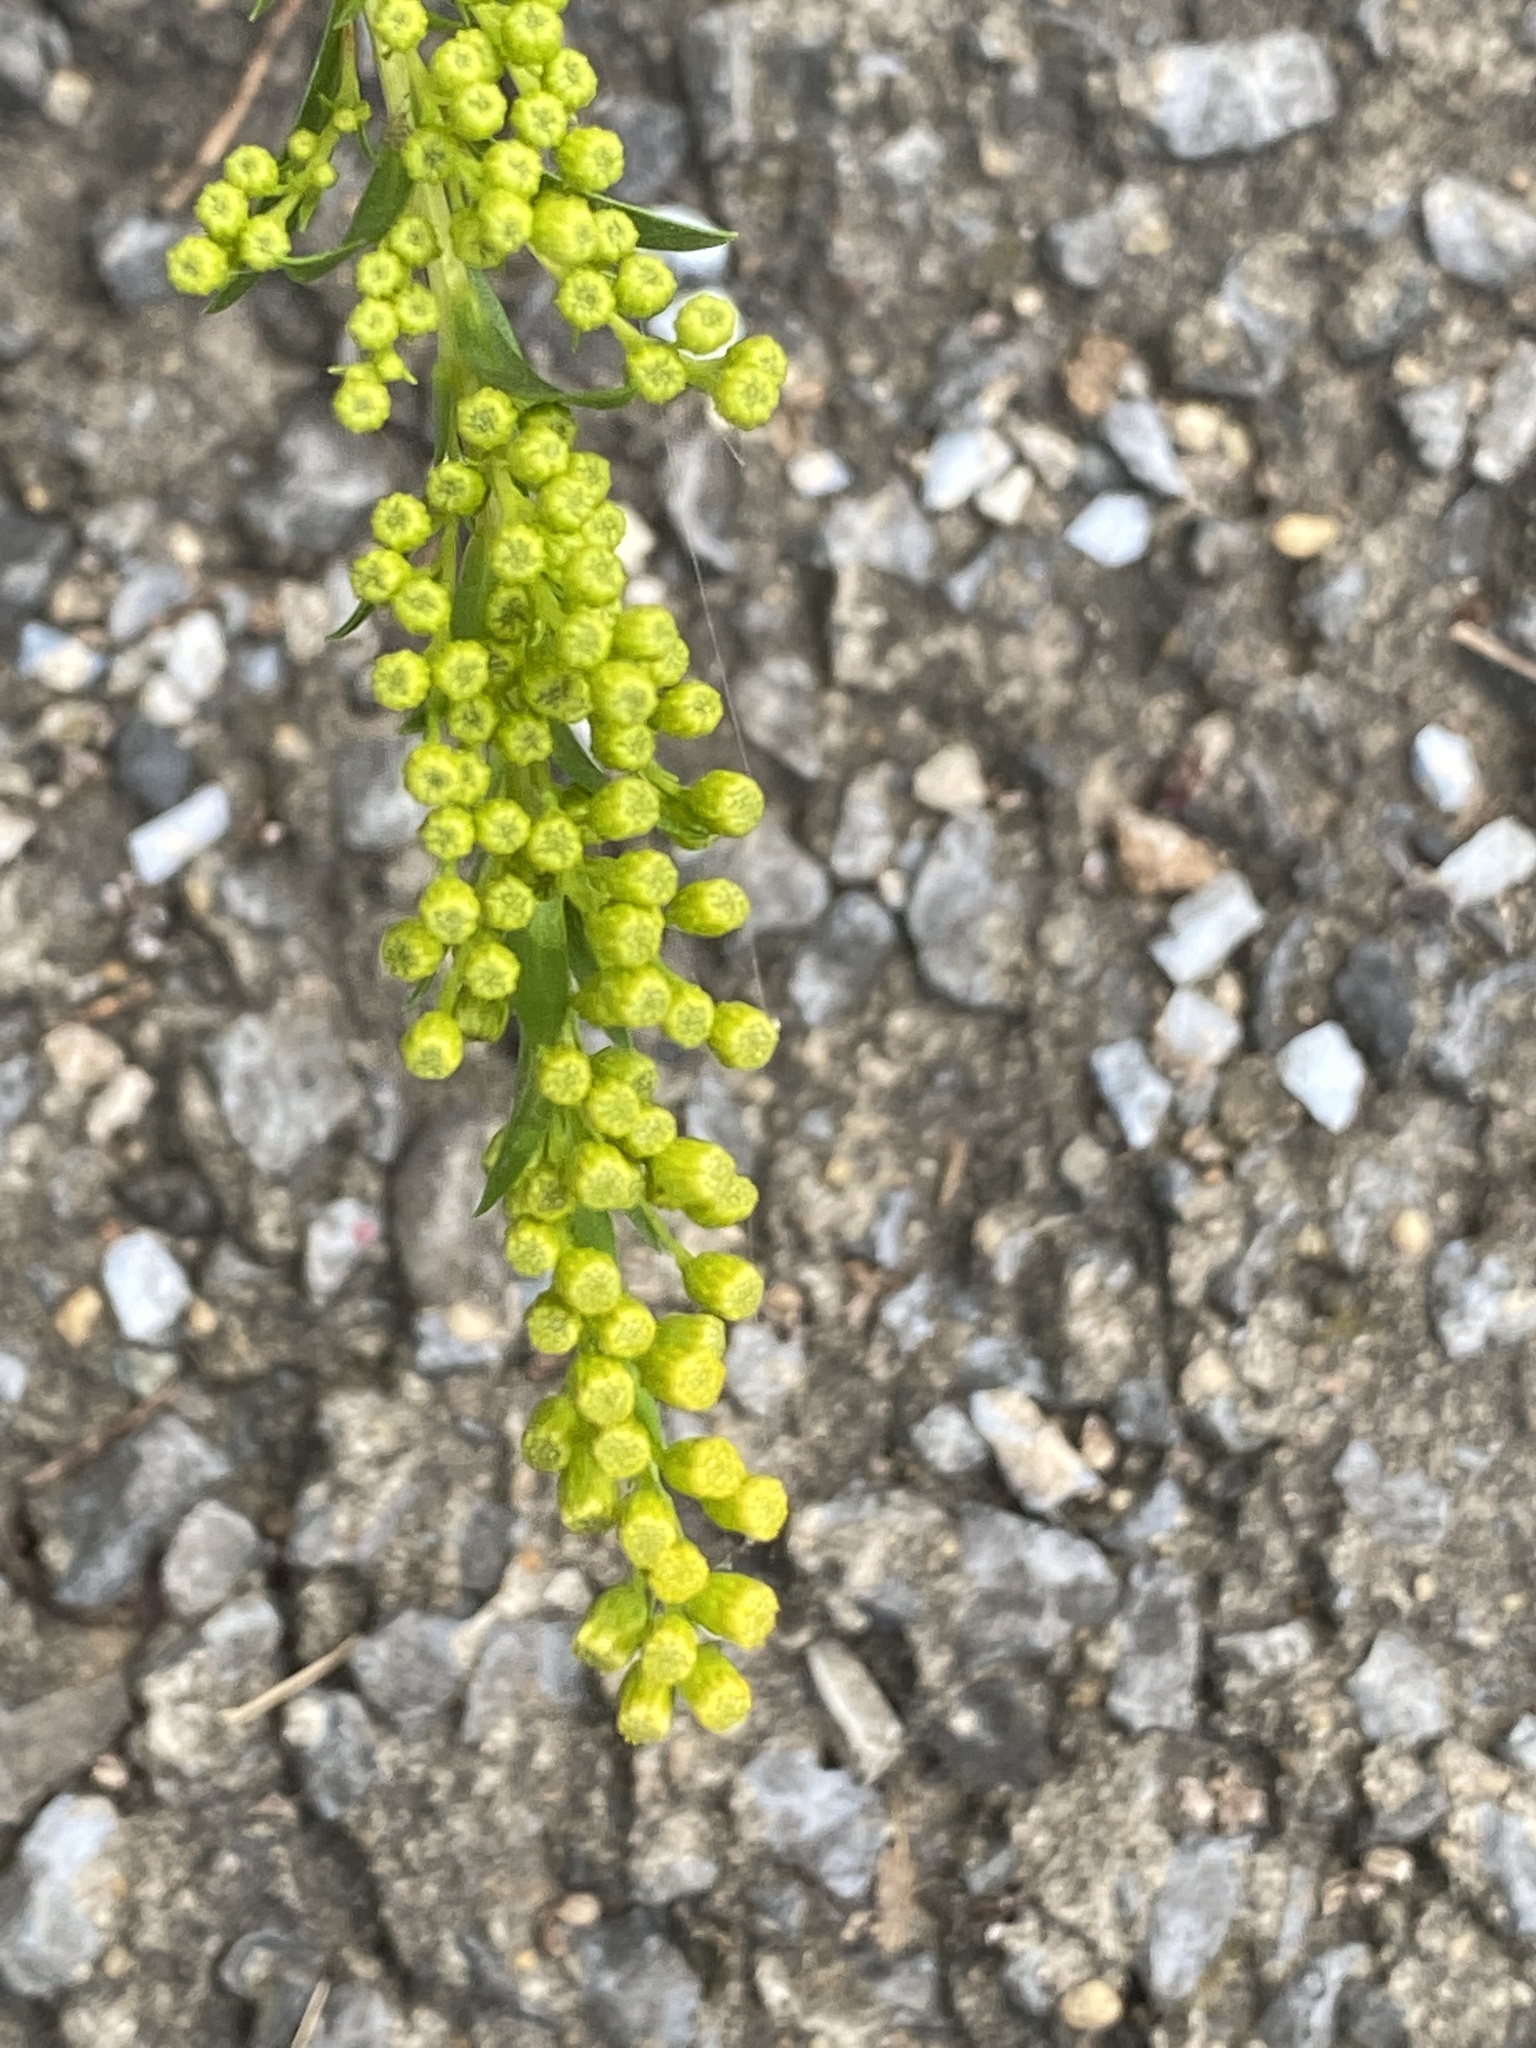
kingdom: Plantae
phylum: Tracheophyta
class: Magnoliopsida
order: Asterales
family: Asteraceae
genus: Solidago
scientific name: Solidago sempervirens
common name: Salt-marsh goldenrod
